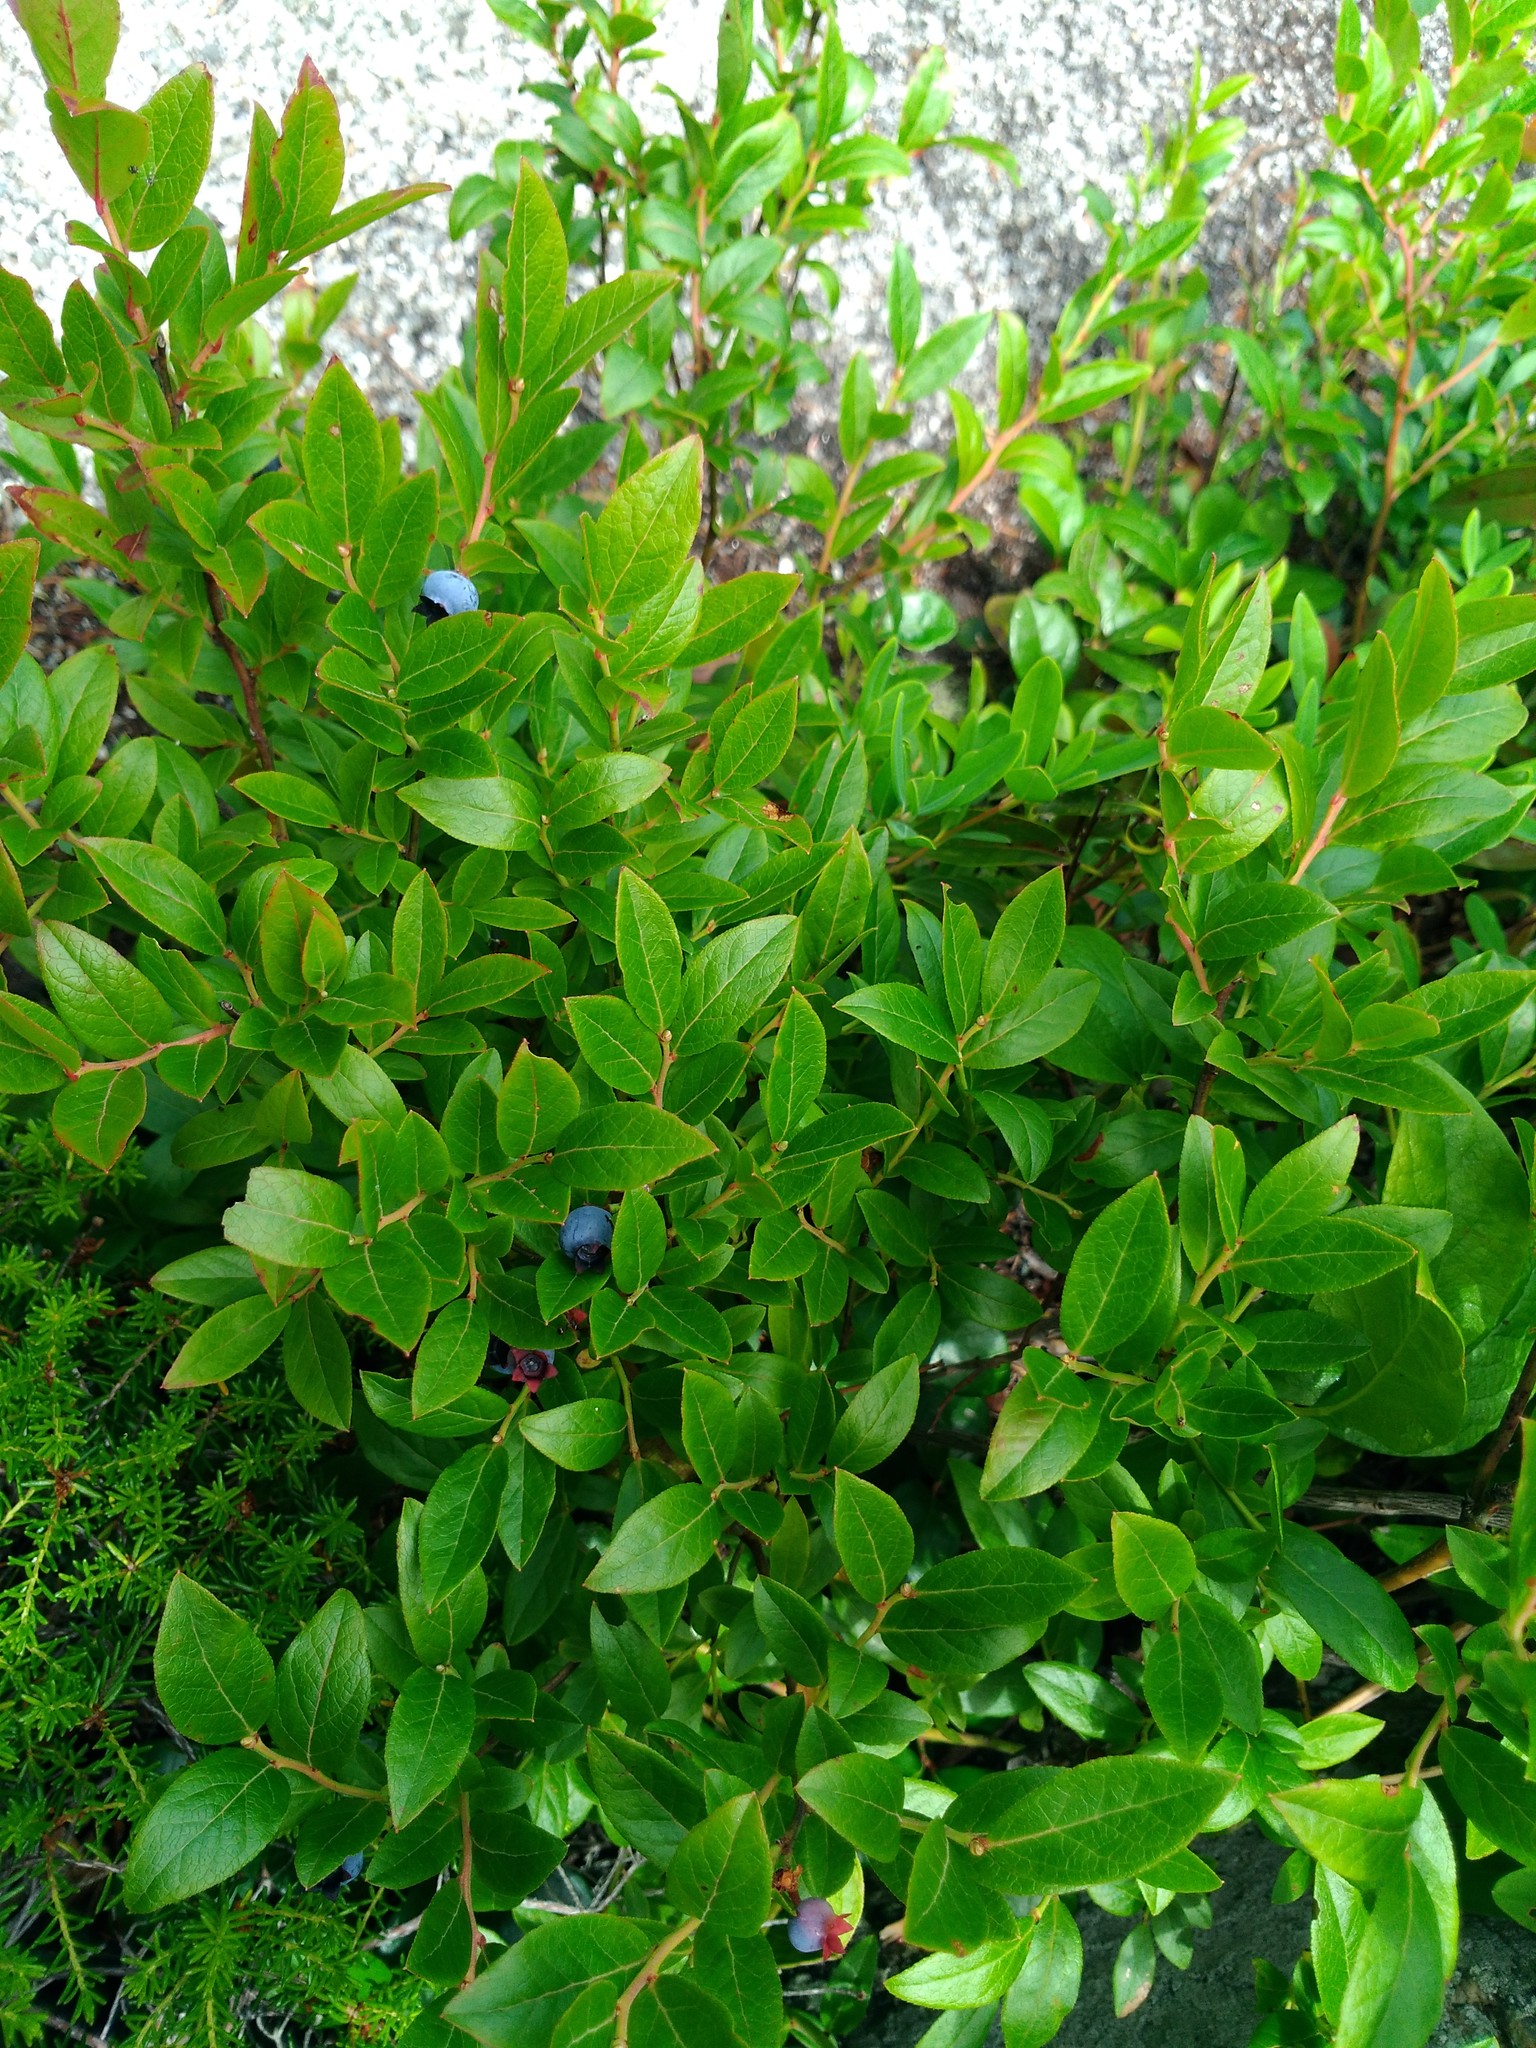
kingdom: Plantae
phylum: Tracheophyta
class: Magnoliopsida
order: Ericales
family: Ericaceae
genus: Vaccinium
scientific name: Vaccinium angustifolium
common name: Early lowbush blueberry
